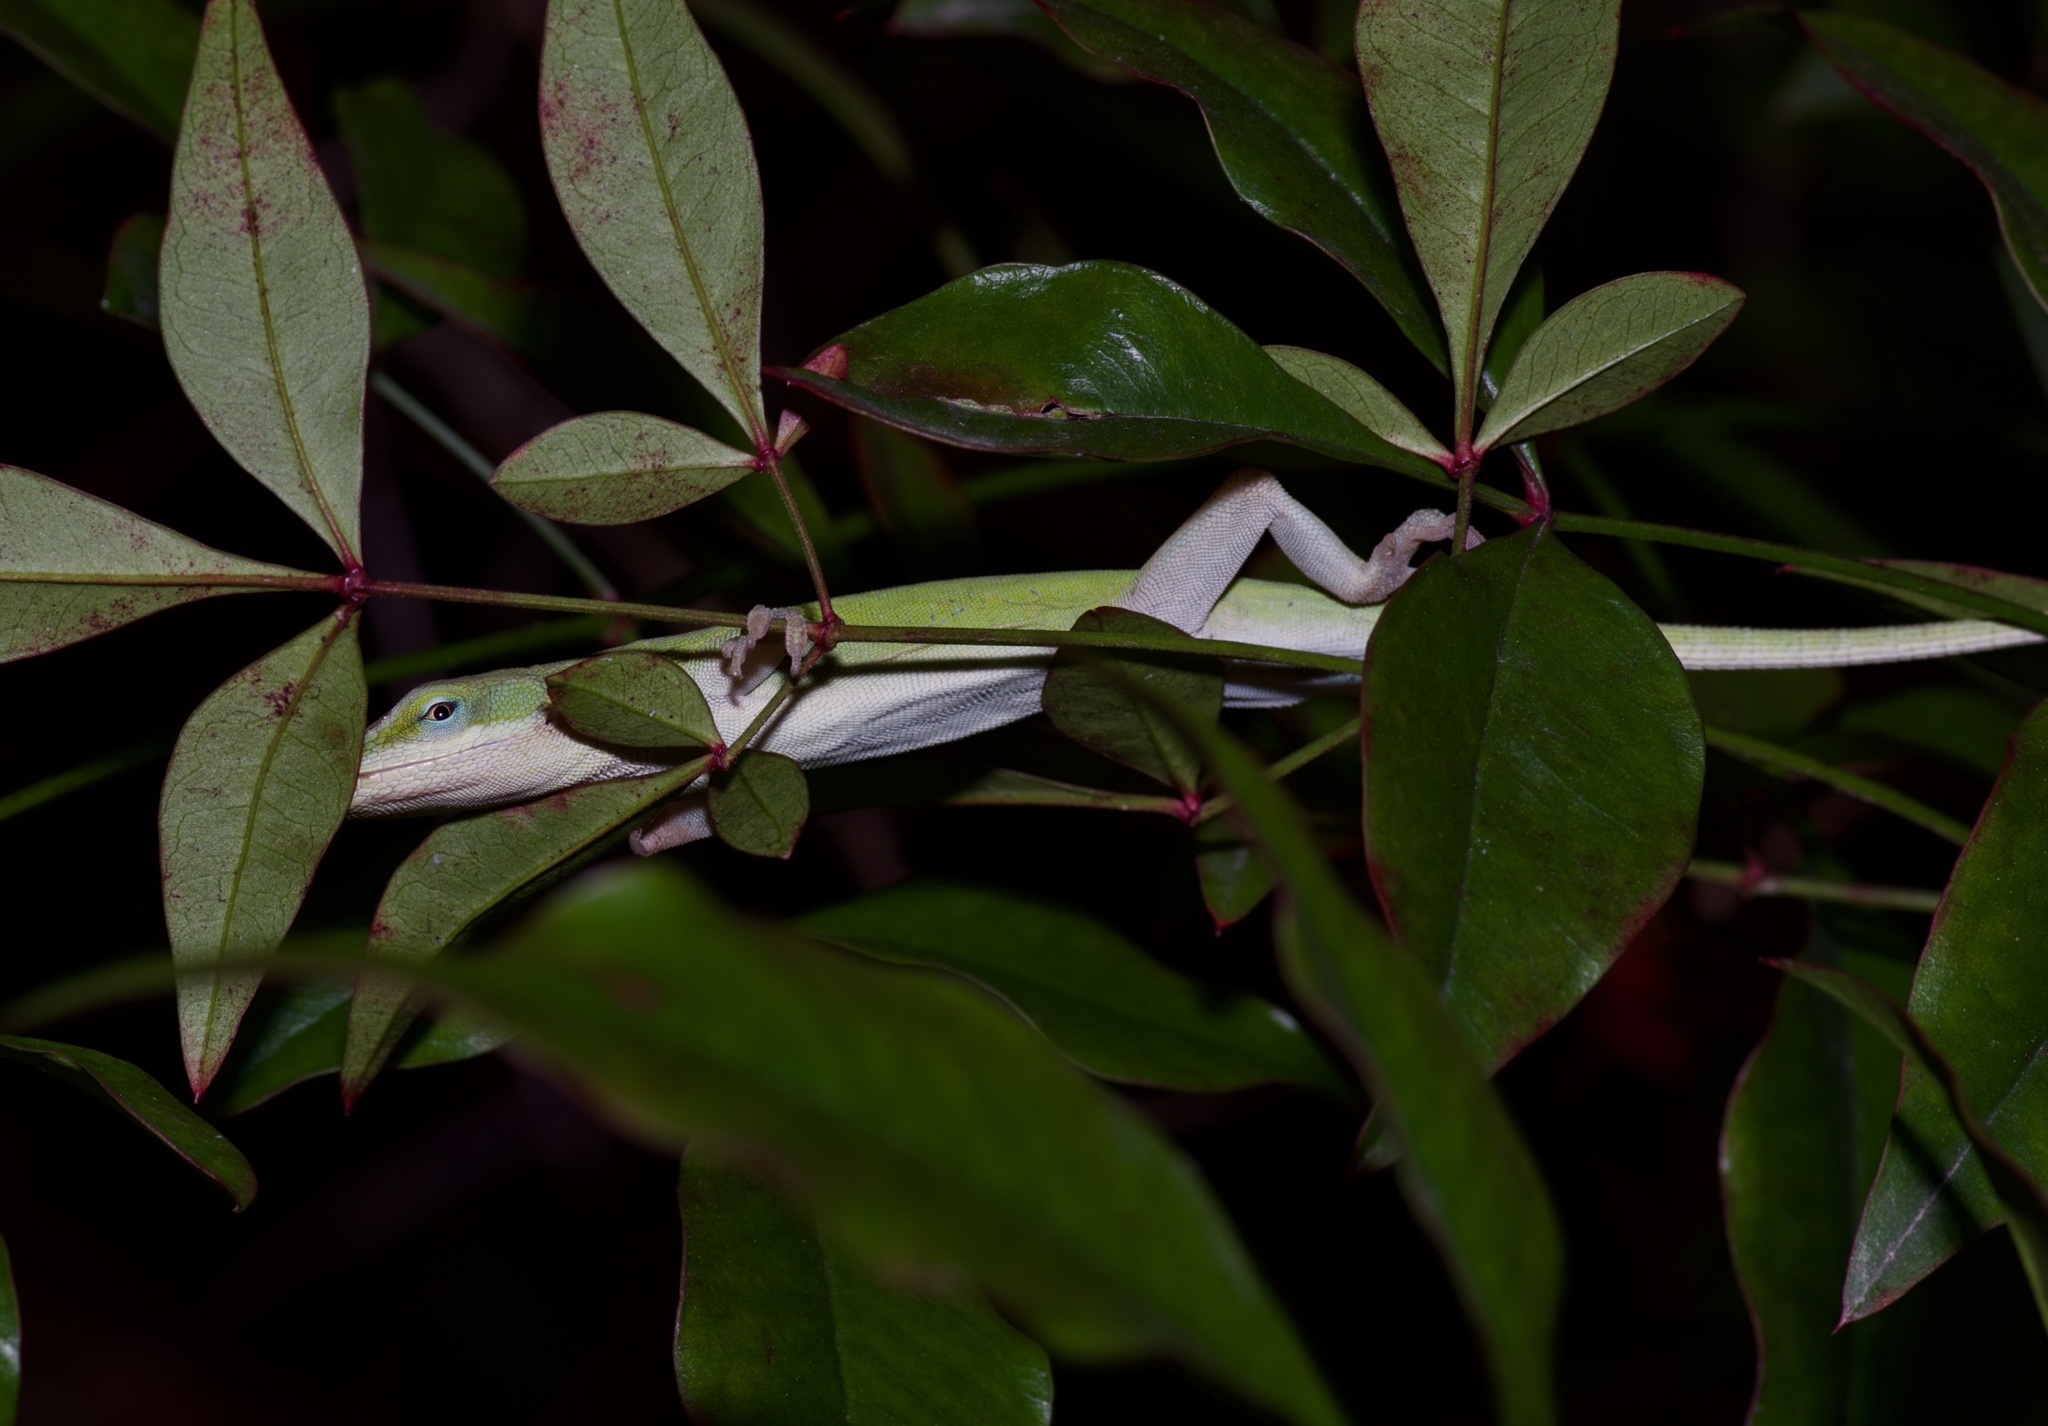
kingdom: Animalia
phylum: Chordata
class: Squamata
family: Dactyloidae
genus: Anolis
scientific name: Anolis carolinensis
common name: Green anole
